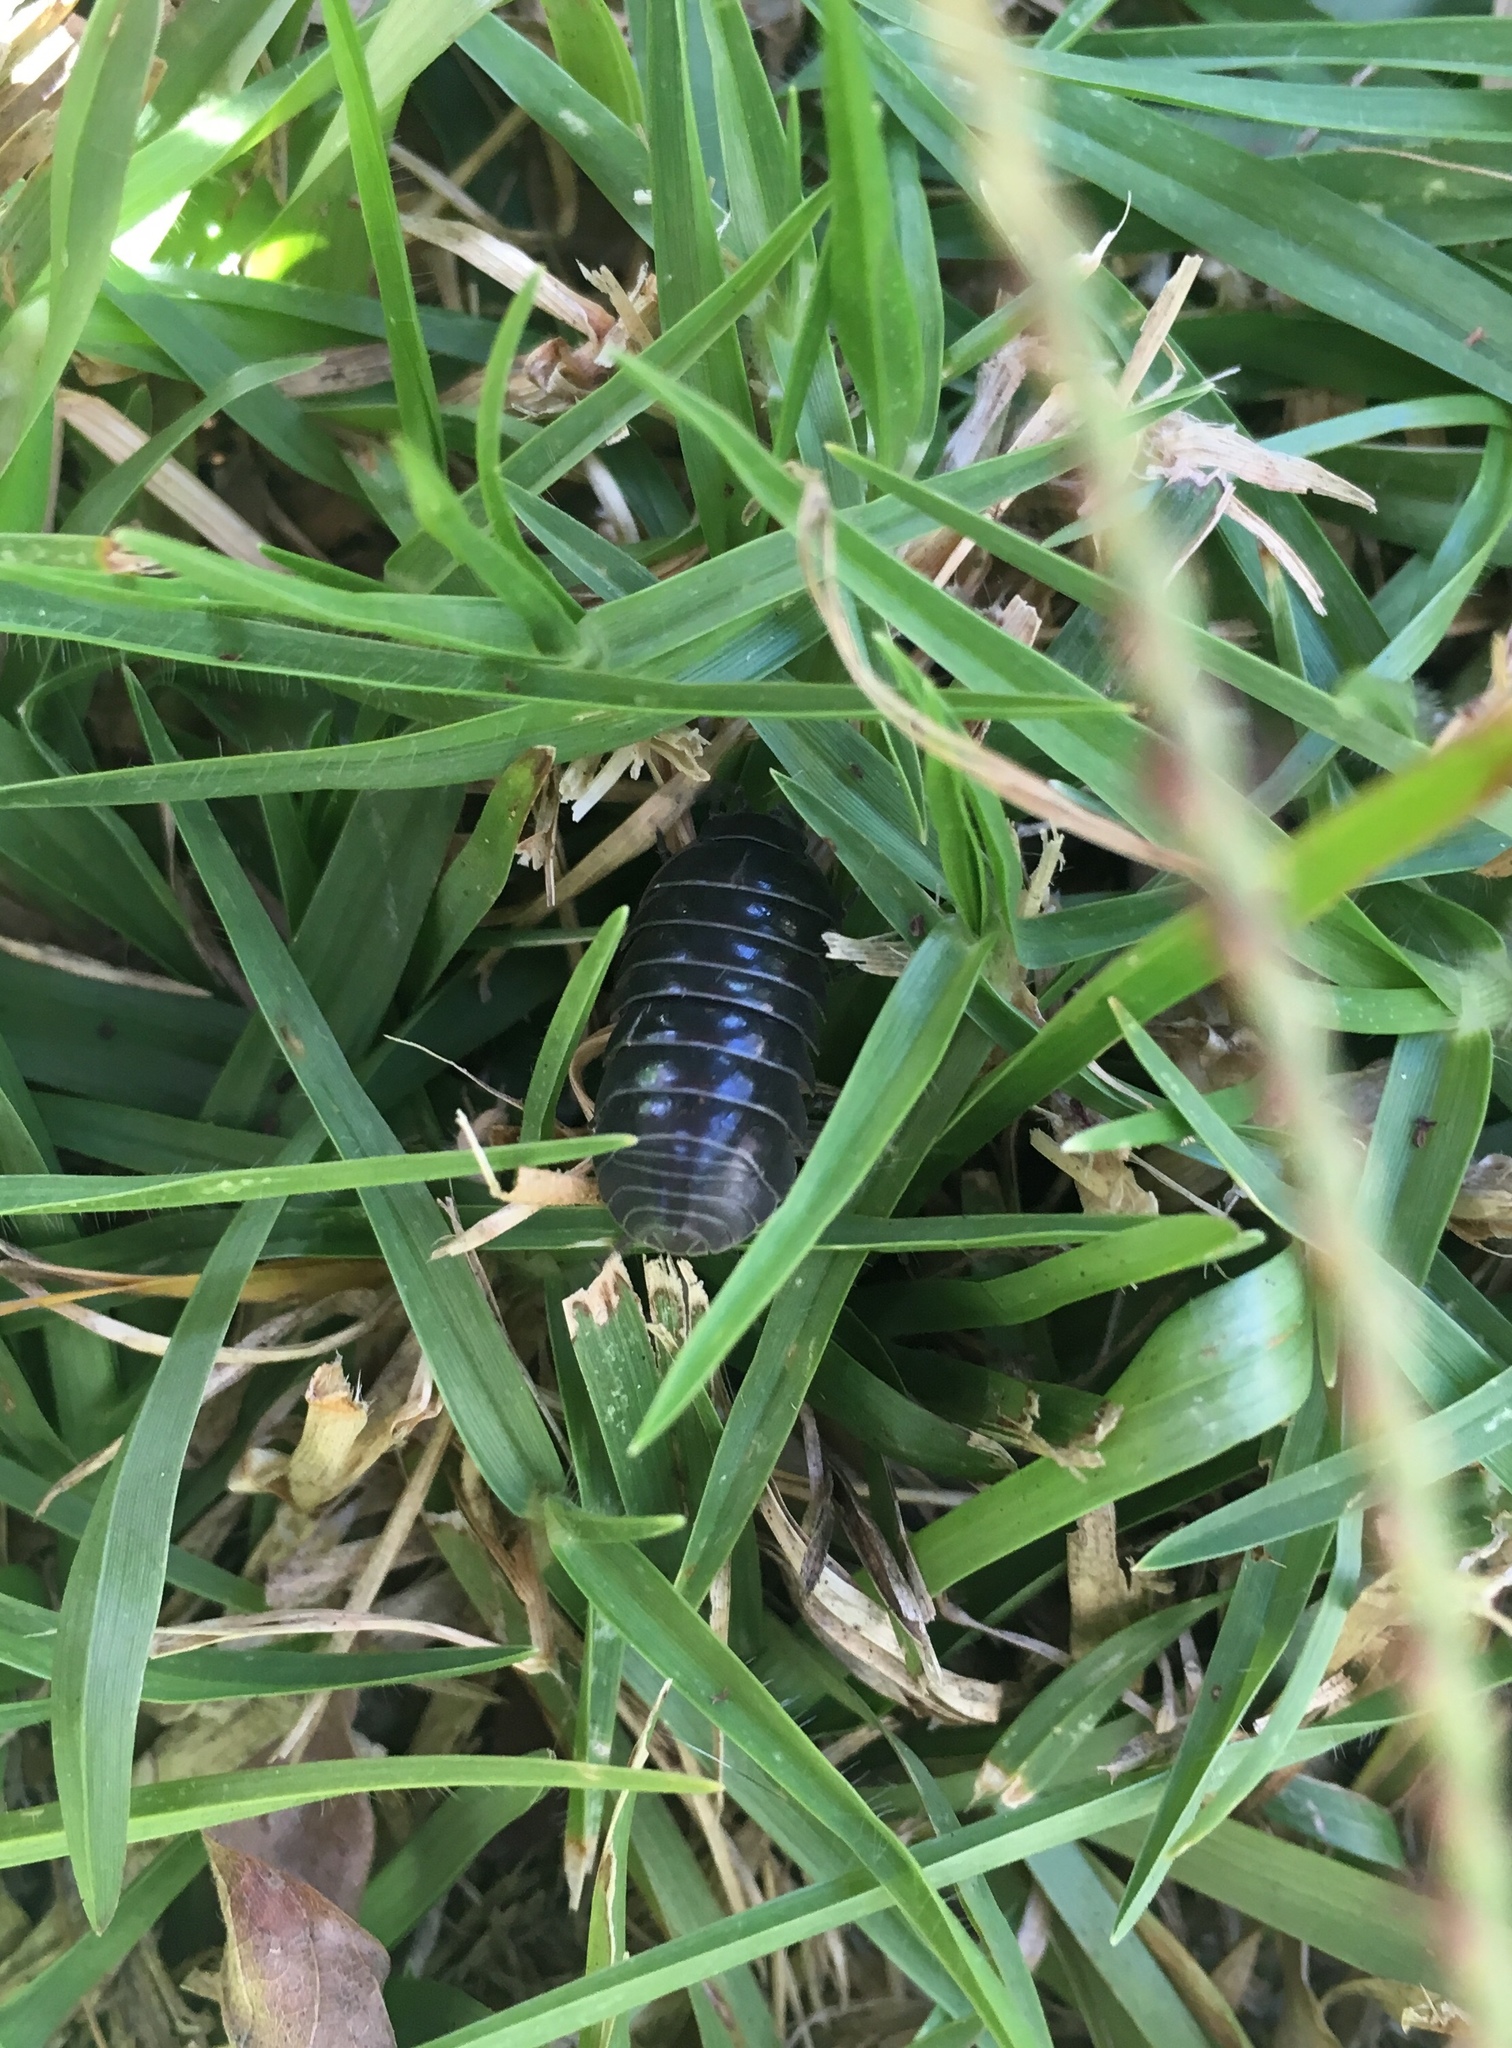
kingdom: Animalia
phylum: Arthropoda
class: Malacostraca
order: Isopoda
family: Armadillidiidae
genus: Armadillidium
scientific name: Armadillidium vulgare
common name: Common pill woodlouse
